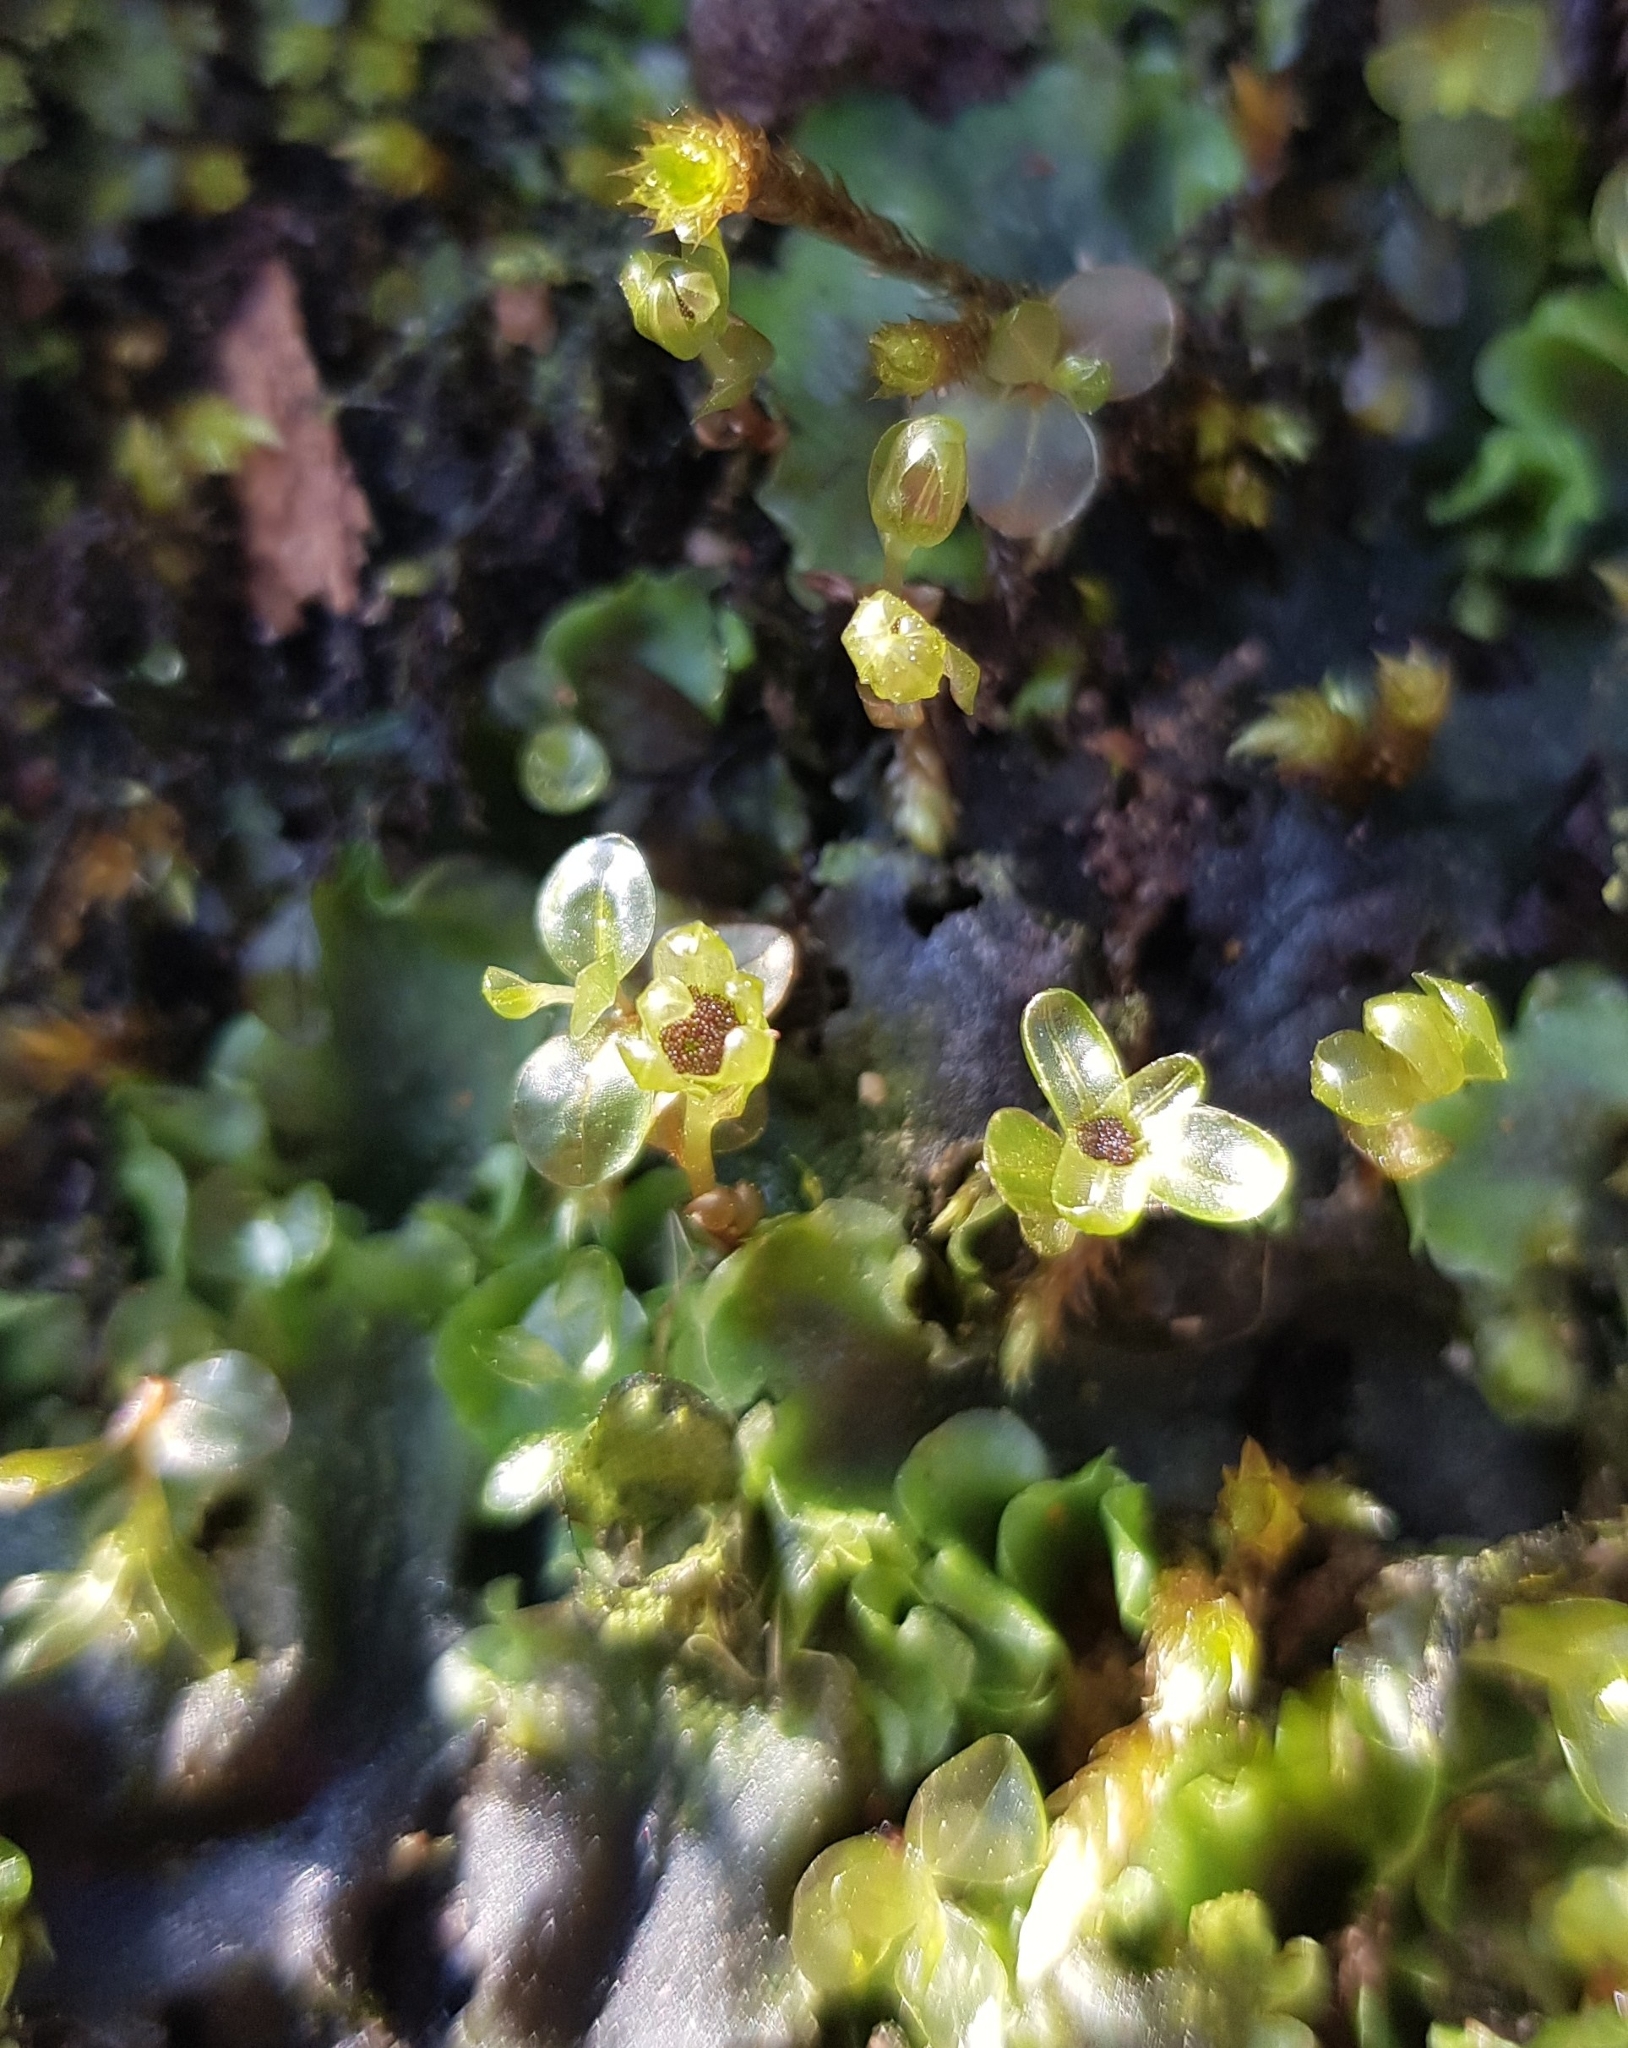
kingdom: Plantae
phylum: Bryophyta
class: Bryopsida
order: Bryales
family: Mniaceae
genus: Rhizomnium
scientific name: Rhizomnium punctatum
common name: Dotted leafy moss
